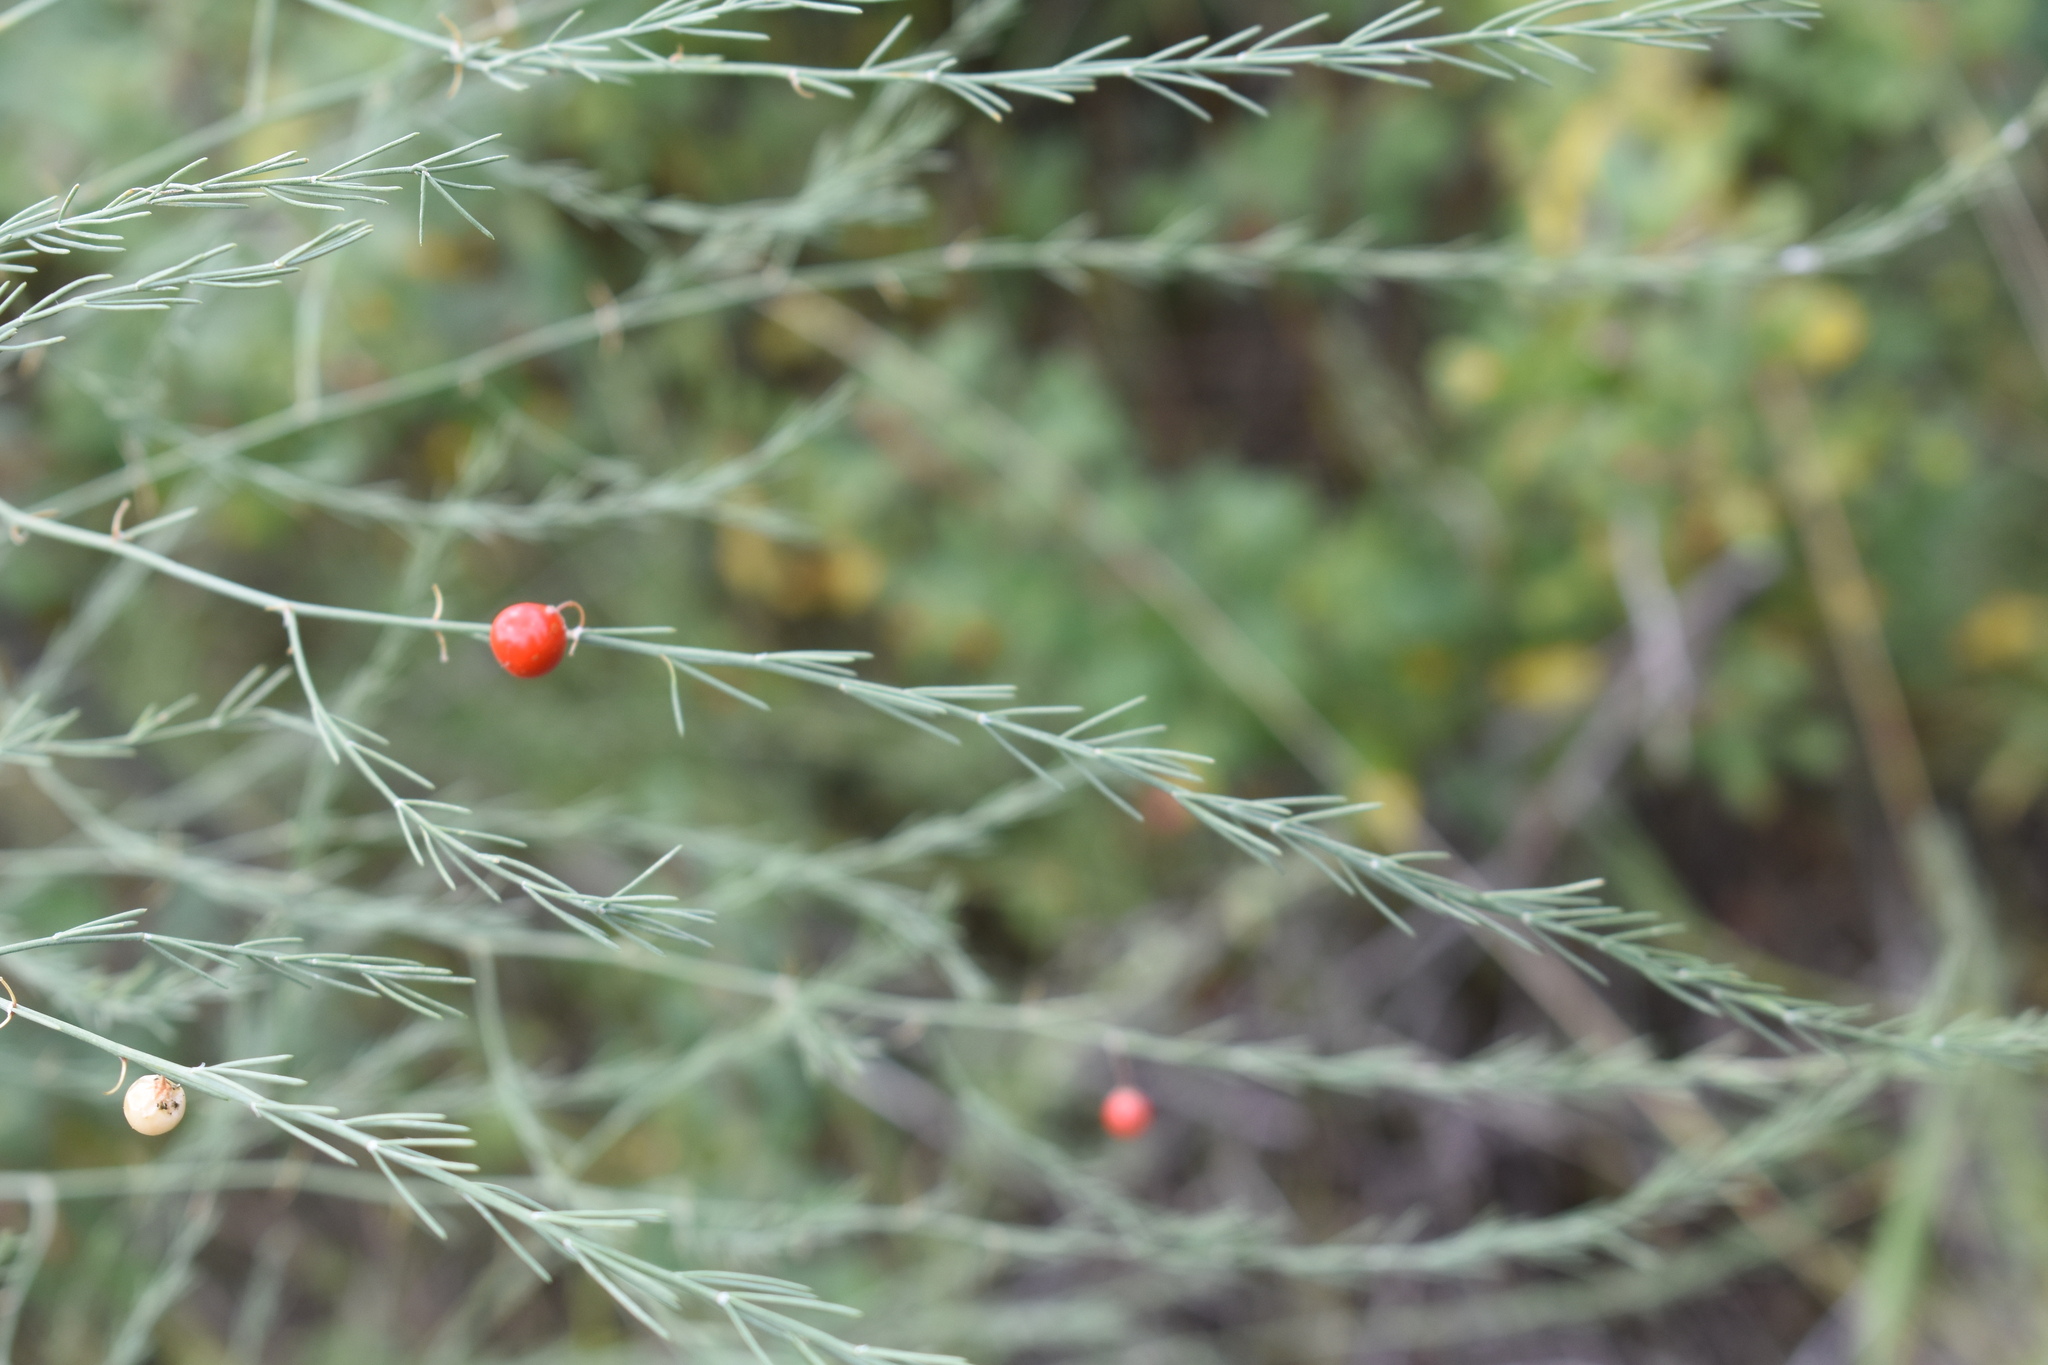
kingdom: Plantae
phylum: Tracheophyta
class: Liliopsida
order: Asparagales
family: Asparagaceae
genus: Asparagus
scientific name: Asparagus officinalis
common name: Garden asparagus
